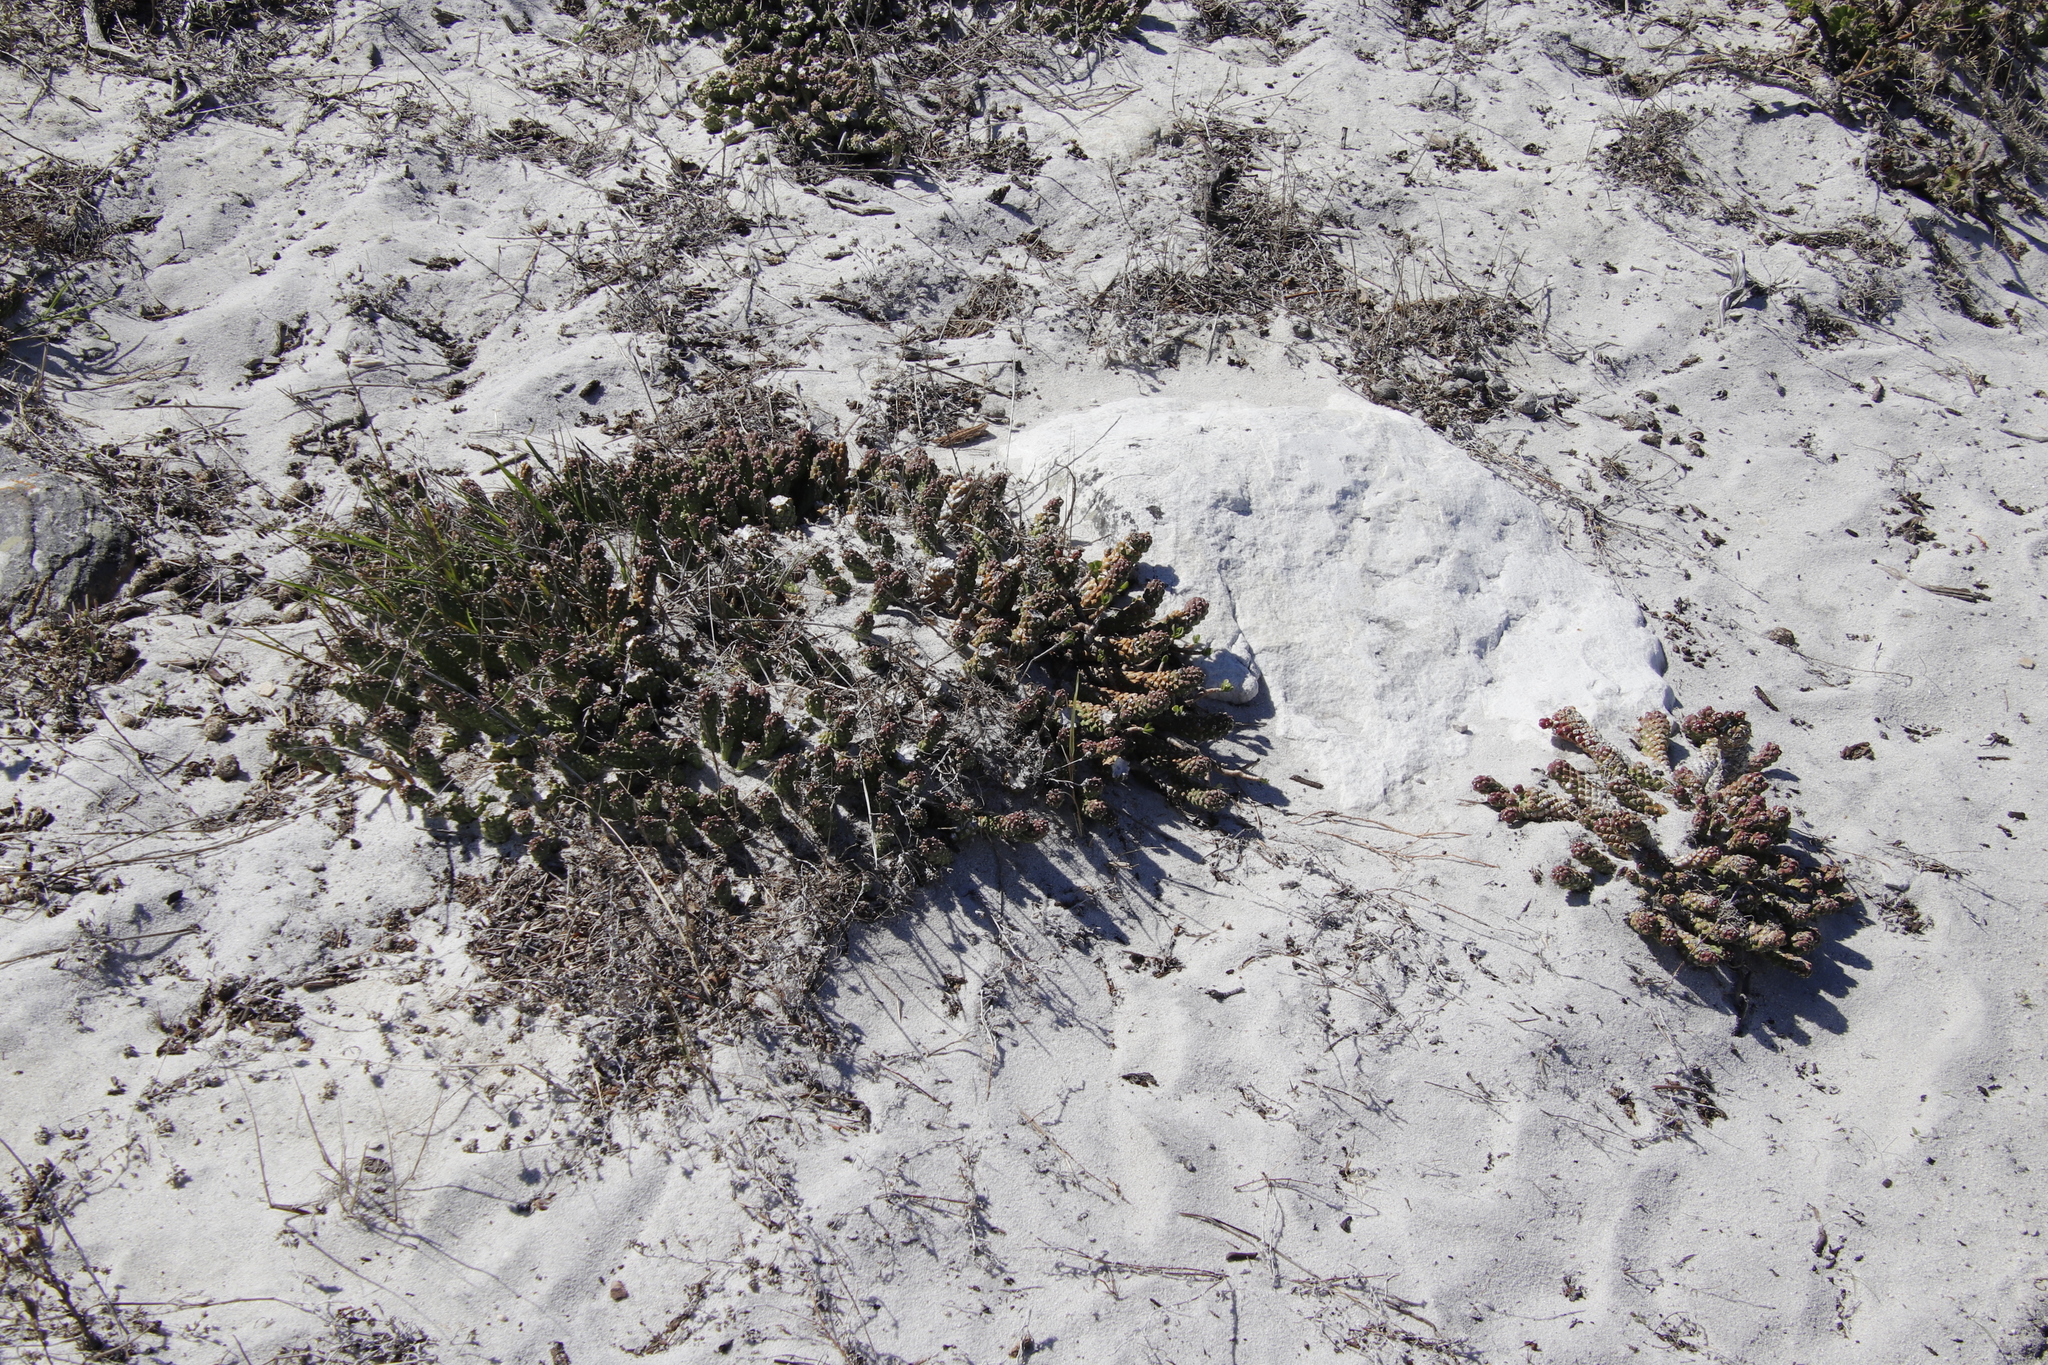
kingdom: Plantae
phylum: Tracheophyta
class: Magnoliopsida
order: Malpighiales
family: Euphorbiaceae
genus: Euphorbia
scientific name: Euphorbia caput-medusae
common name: Medusa's-head
